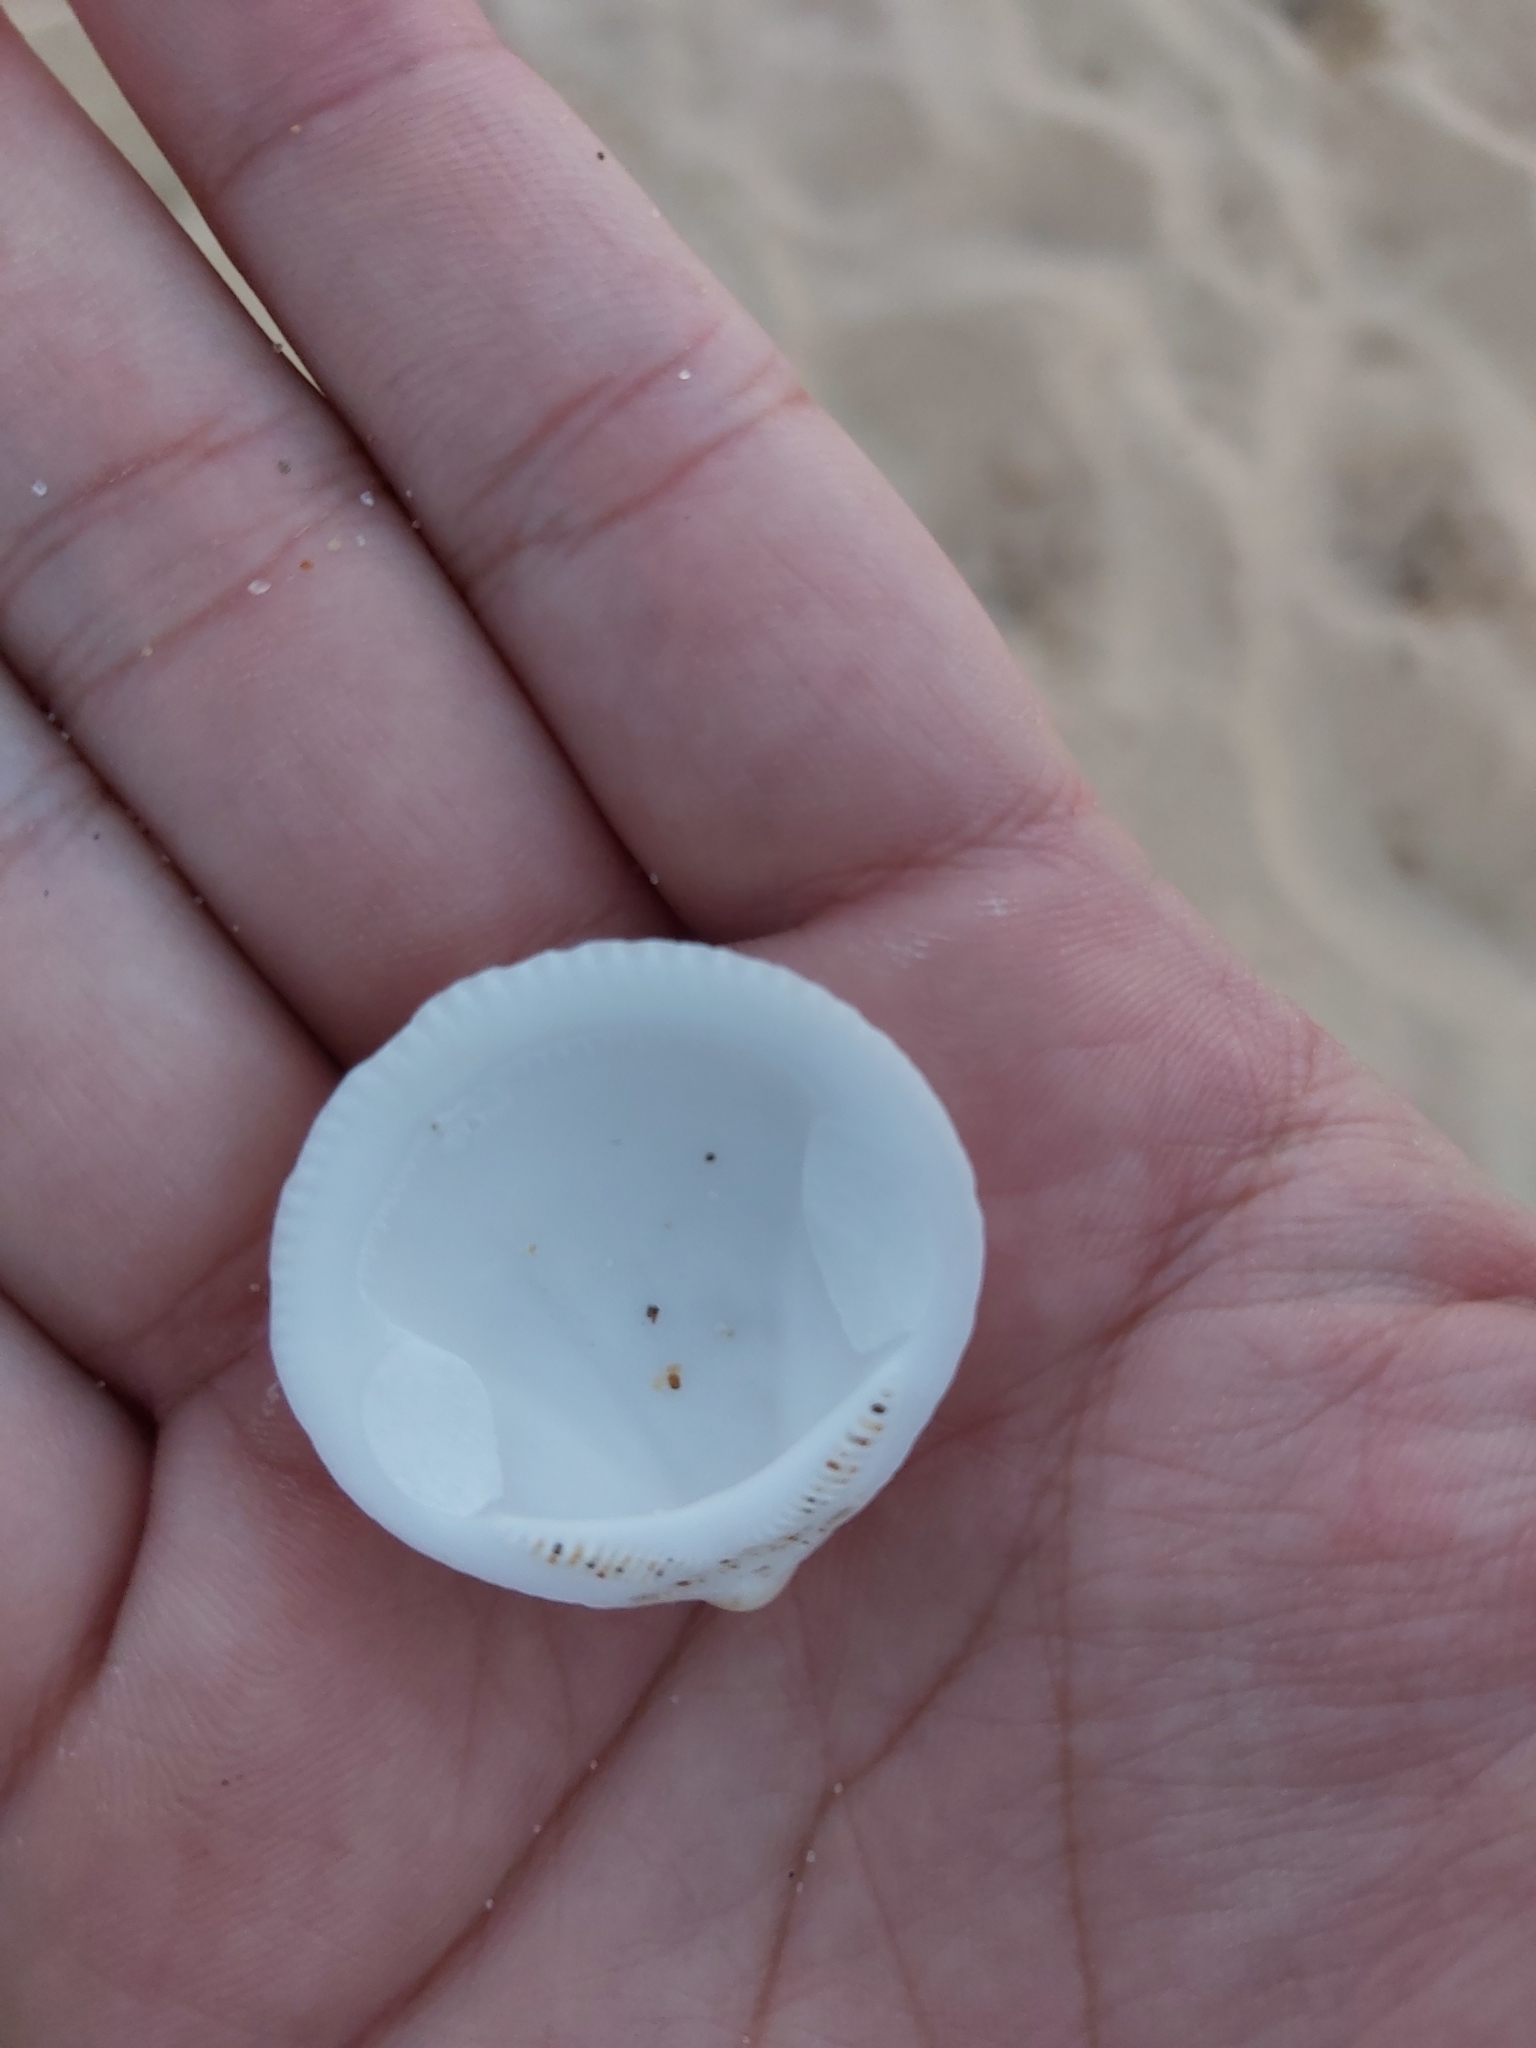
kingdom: Animalia
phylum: Mollusca
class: Bivalvia
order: Arcida
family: Glycymerididae
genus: Glycymeris
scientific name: Glycymeris holoserica
